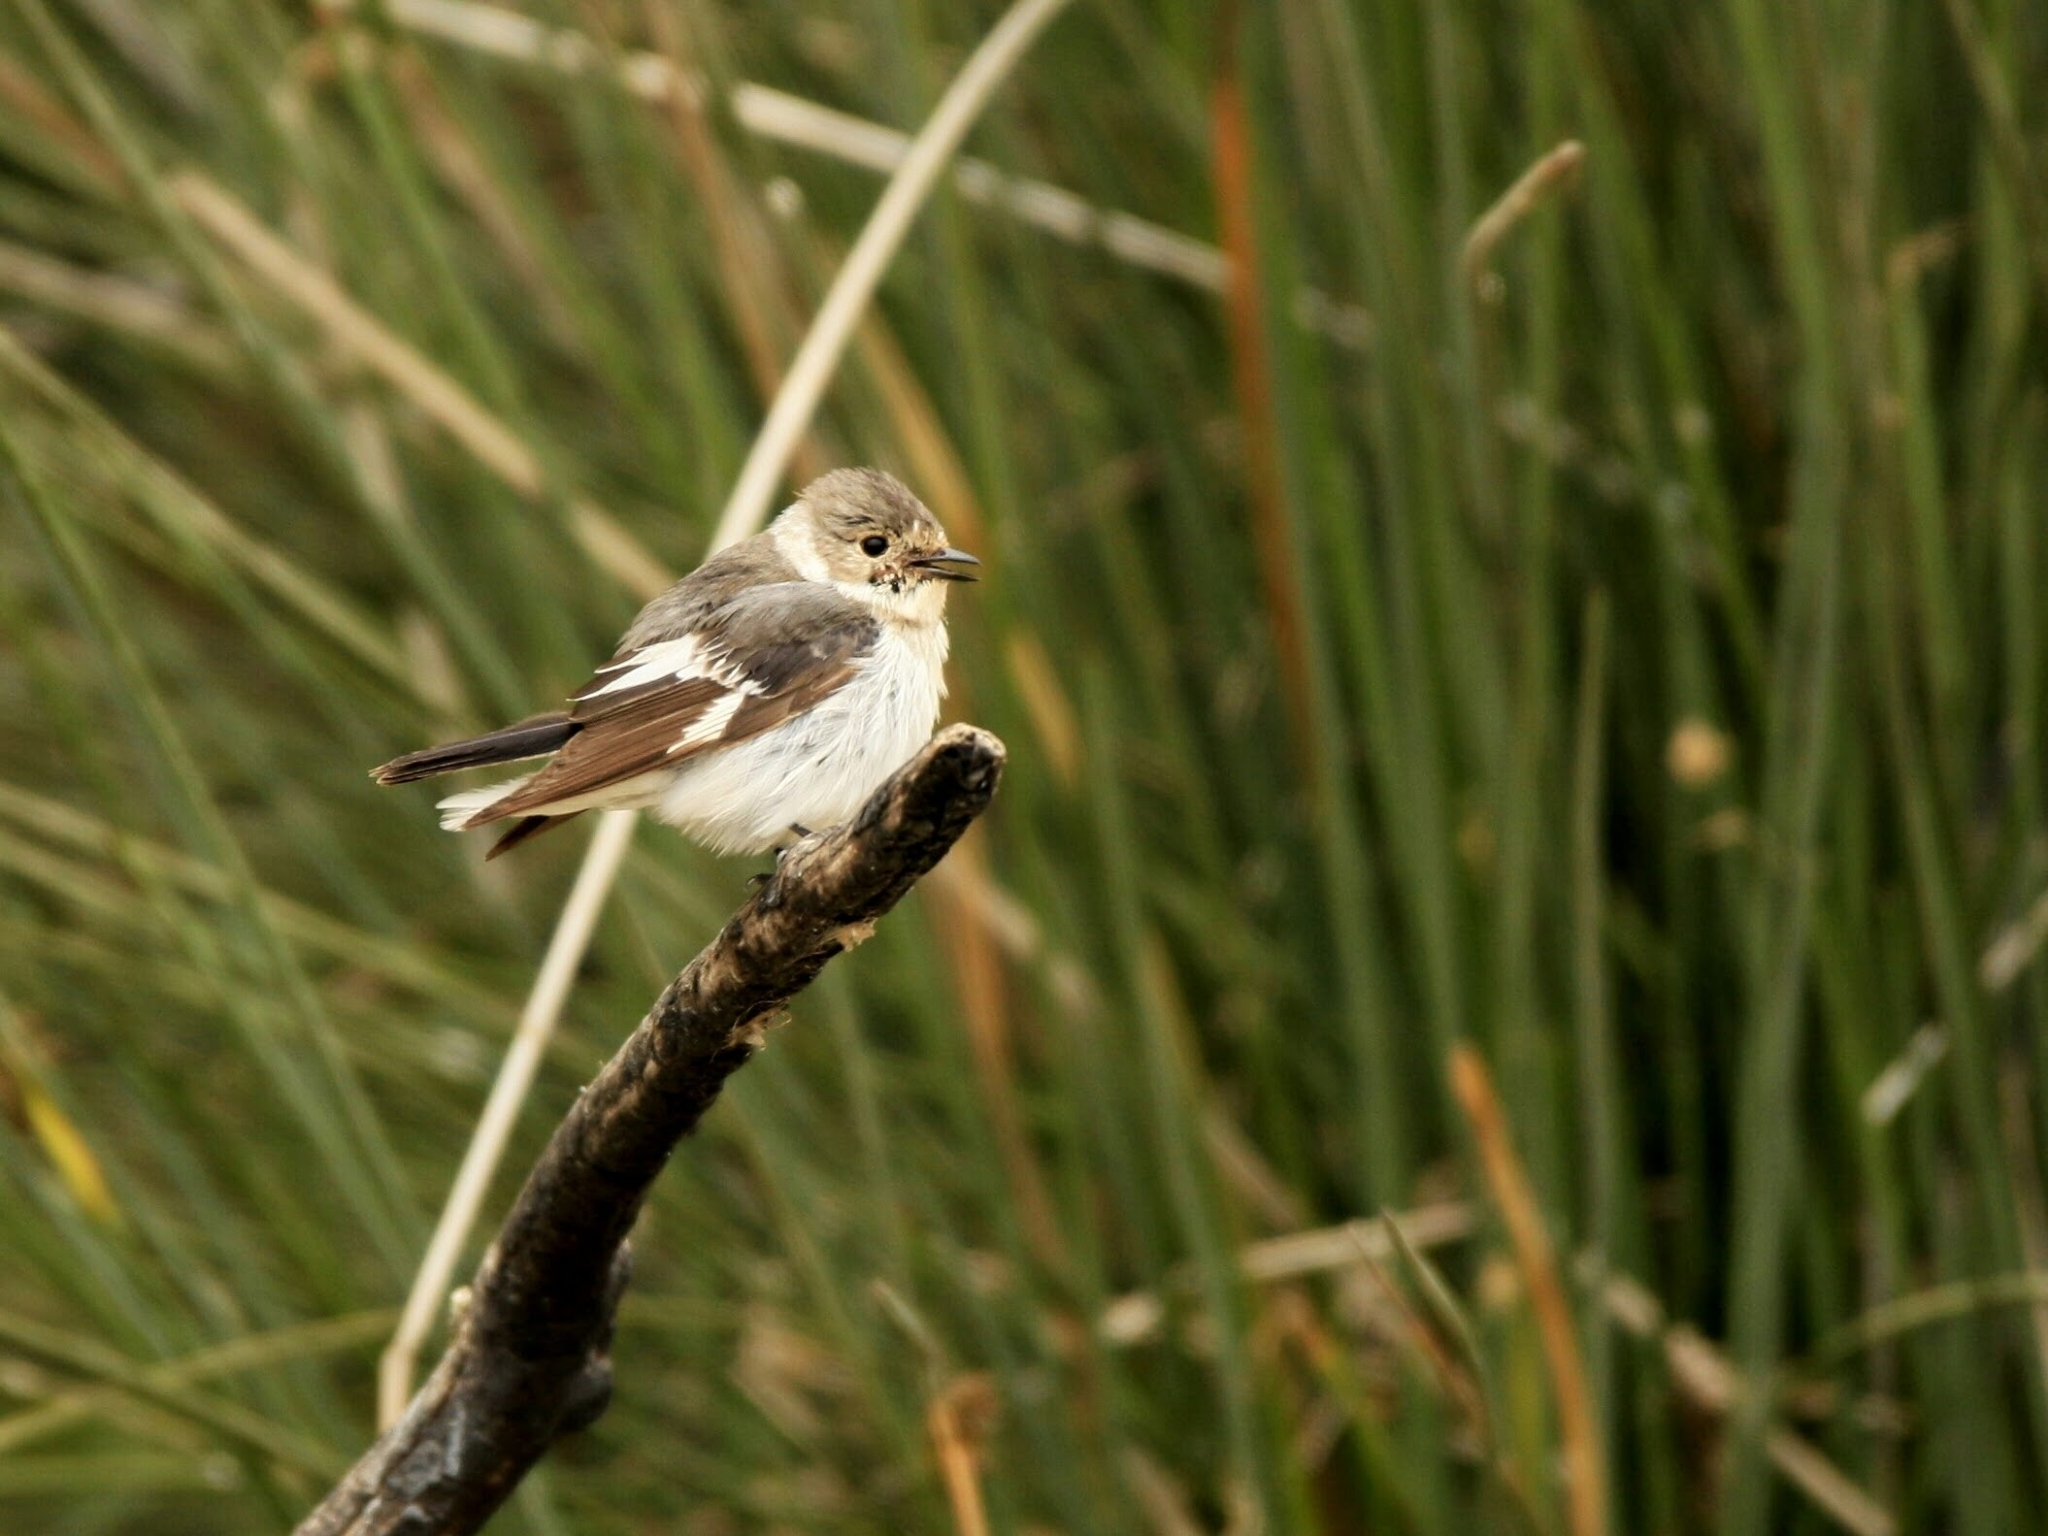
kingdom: Animalia
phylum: Chordata
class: Aves
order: Passeriformes
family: Muscicapidae
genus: Ficedula
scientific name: Ficedula albicollis
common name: Collared flycatcher
